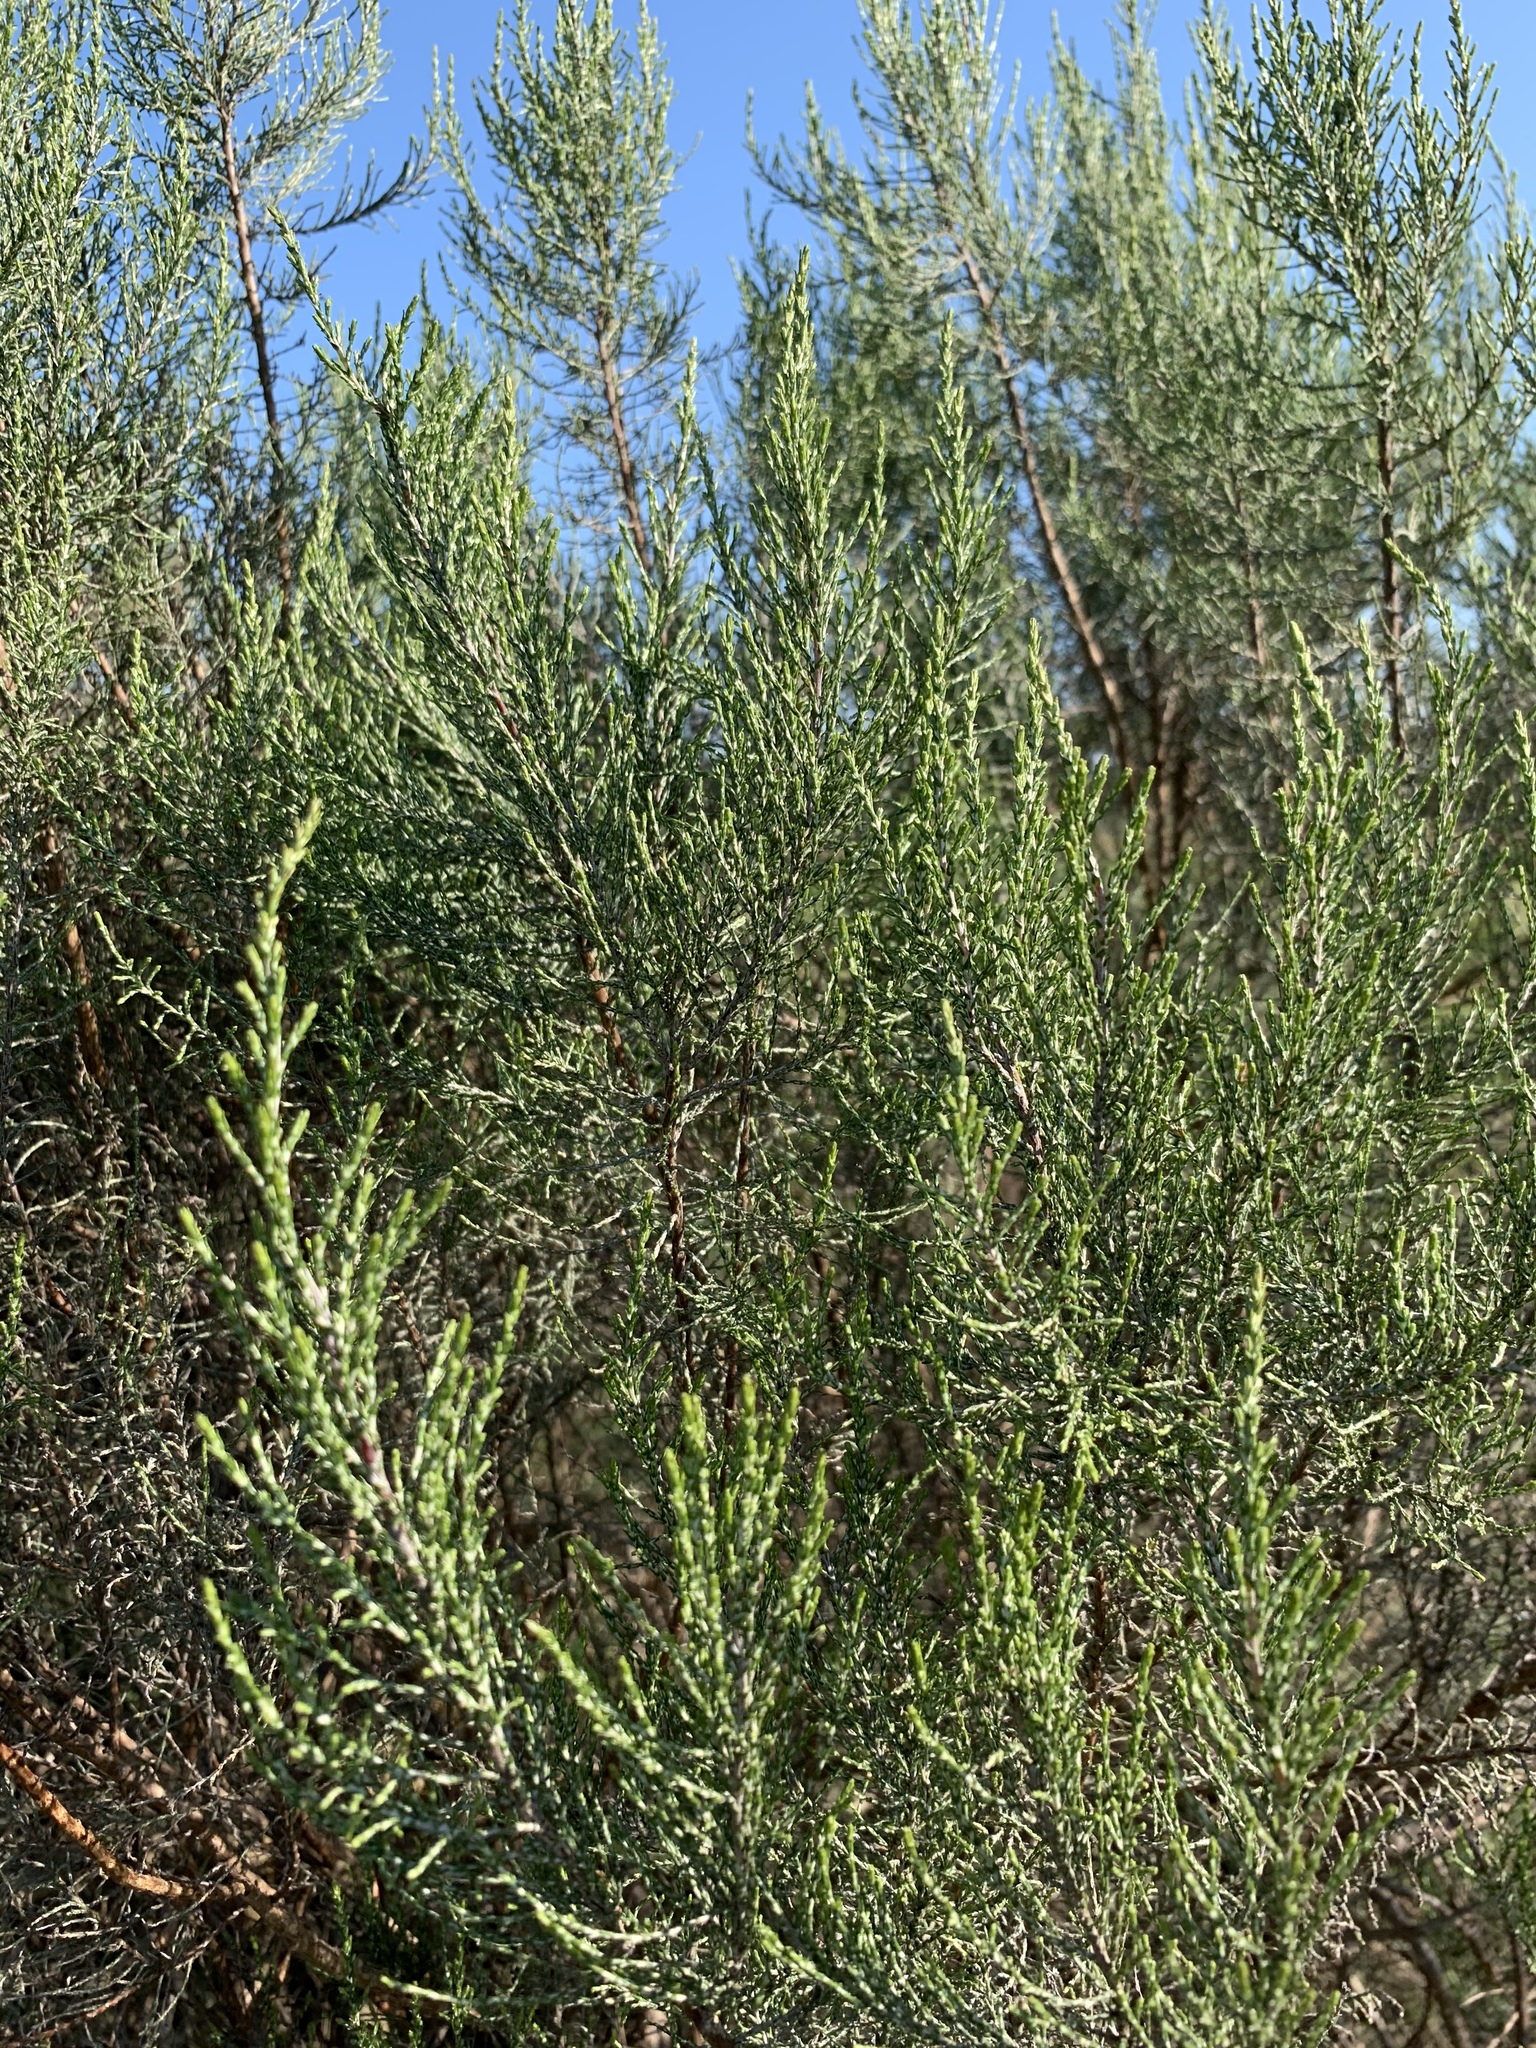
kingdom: Plantae
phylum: Tracheophyta
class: Magnoliopsida
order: Asterales
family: Asteraceae
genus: Dicerothamnus
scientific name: Dicerothamnus rhinocerotis
